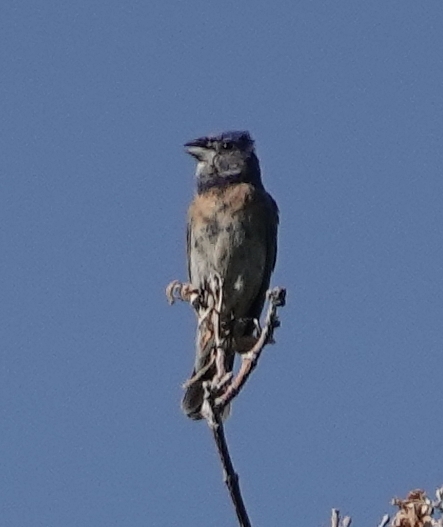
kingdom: Animalia
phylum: Chordata
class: Aves
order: Passeriformes
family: Cardinalidae
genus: Passerina
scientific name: Passerina caerulea
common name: Blue grosbeak
